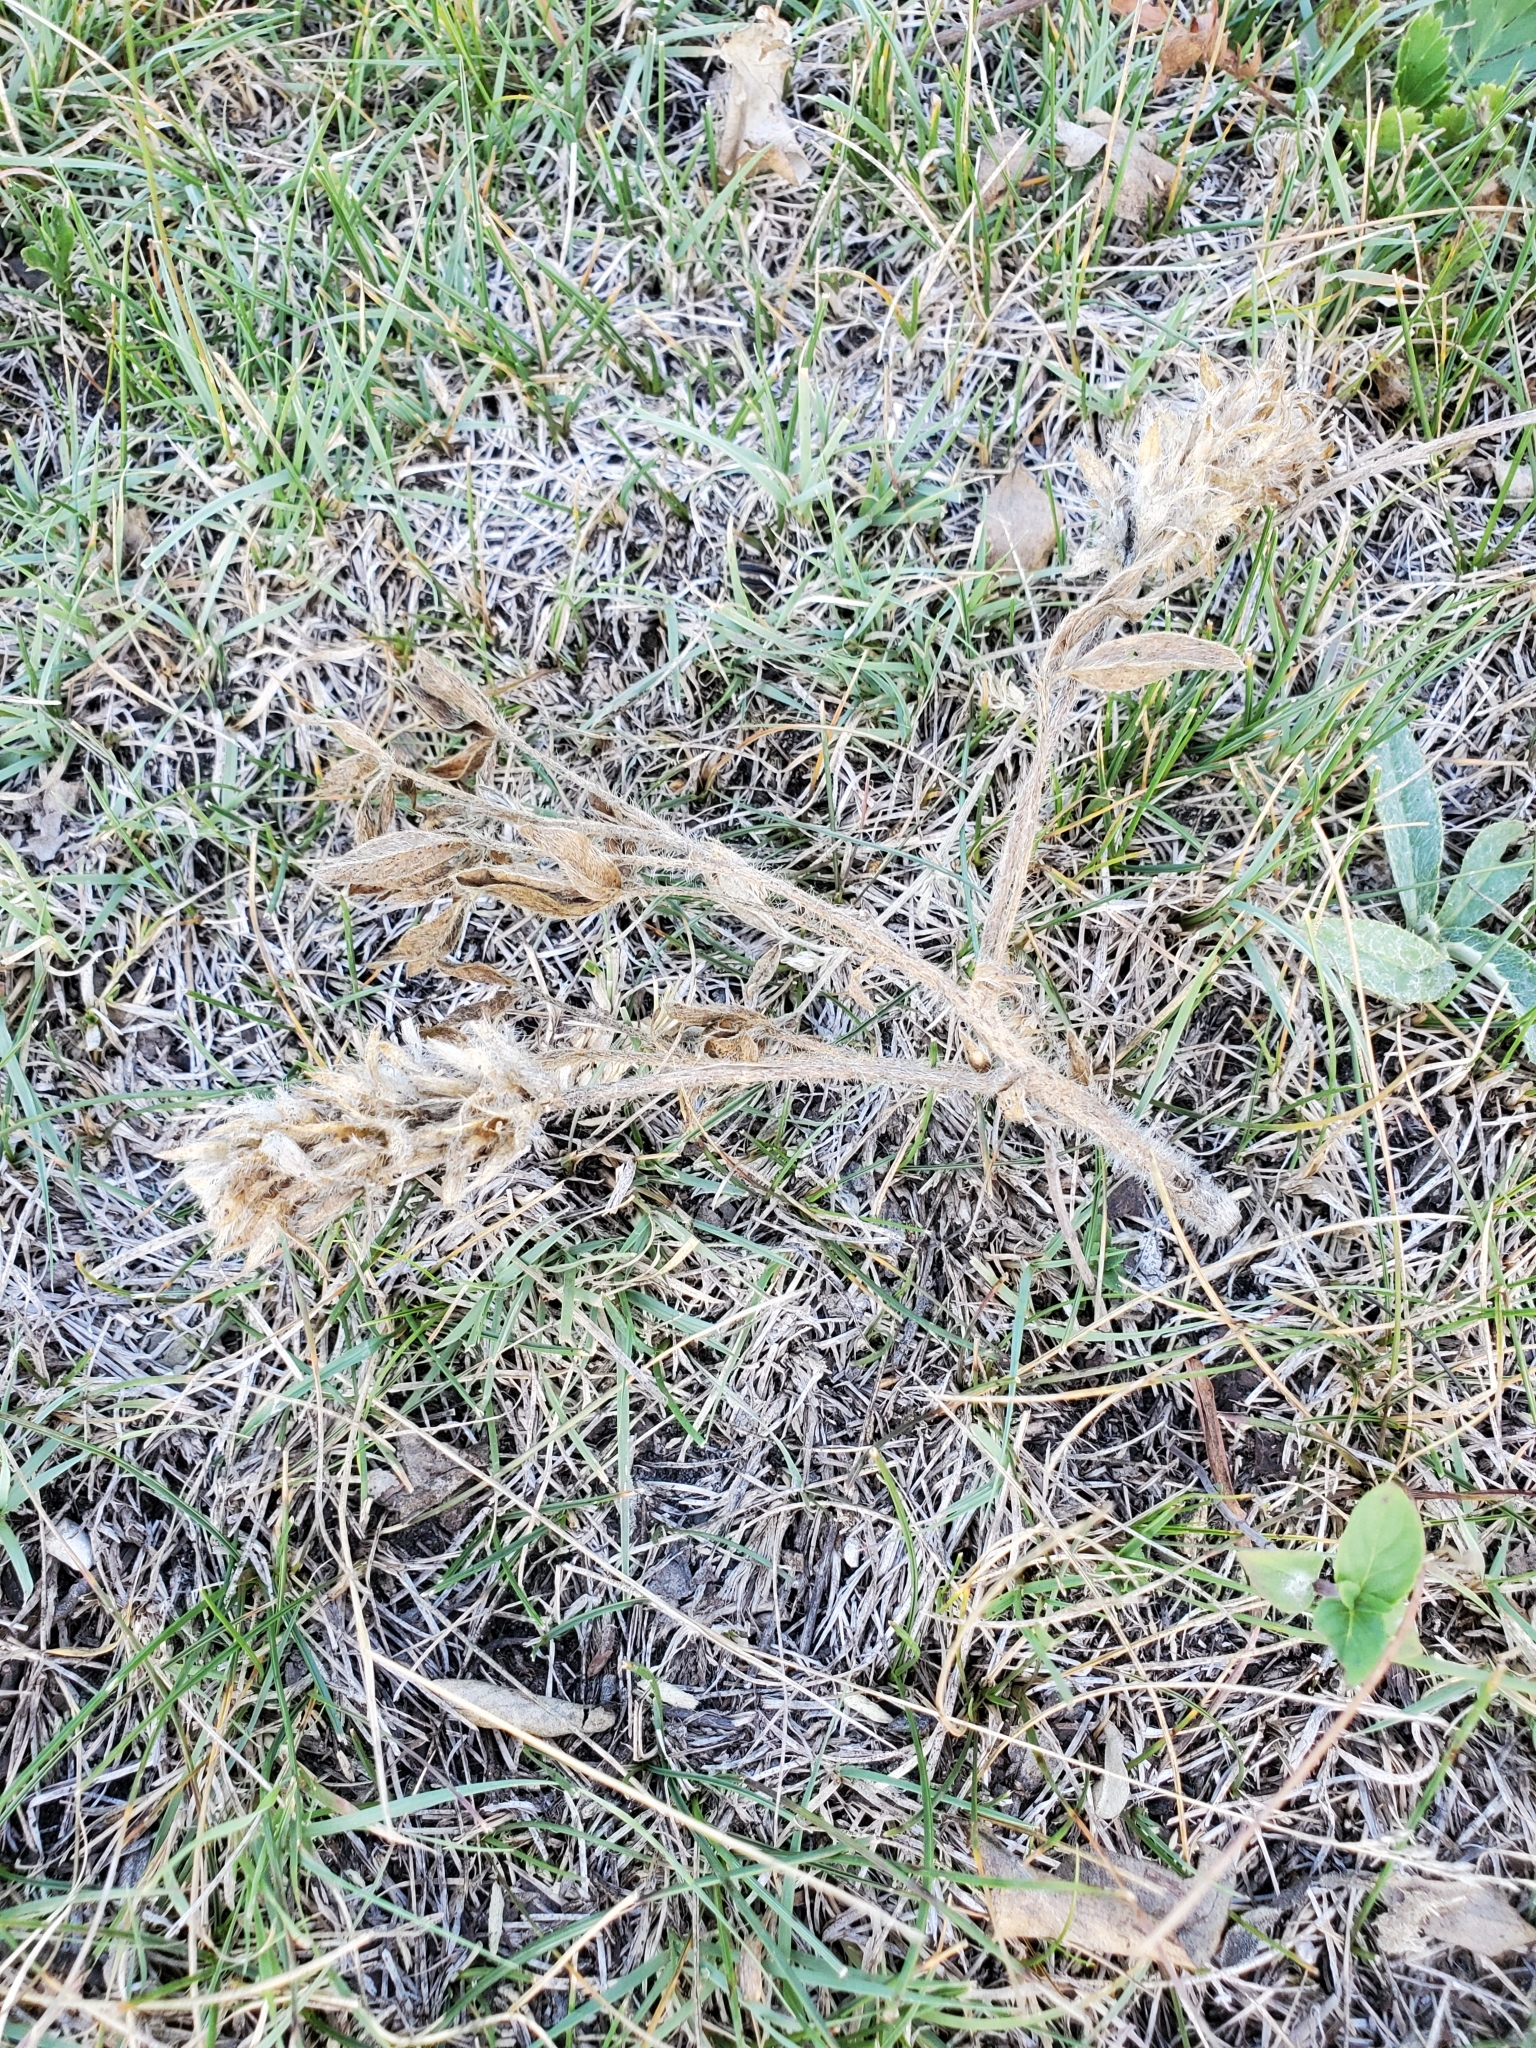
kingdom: Plantae
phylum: Tracheophyta
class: Magnoliopsida
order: Fabales
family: Fabaceae
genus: Pediomelum
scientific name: Pediomelum esculentum
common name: Indian-turnip
